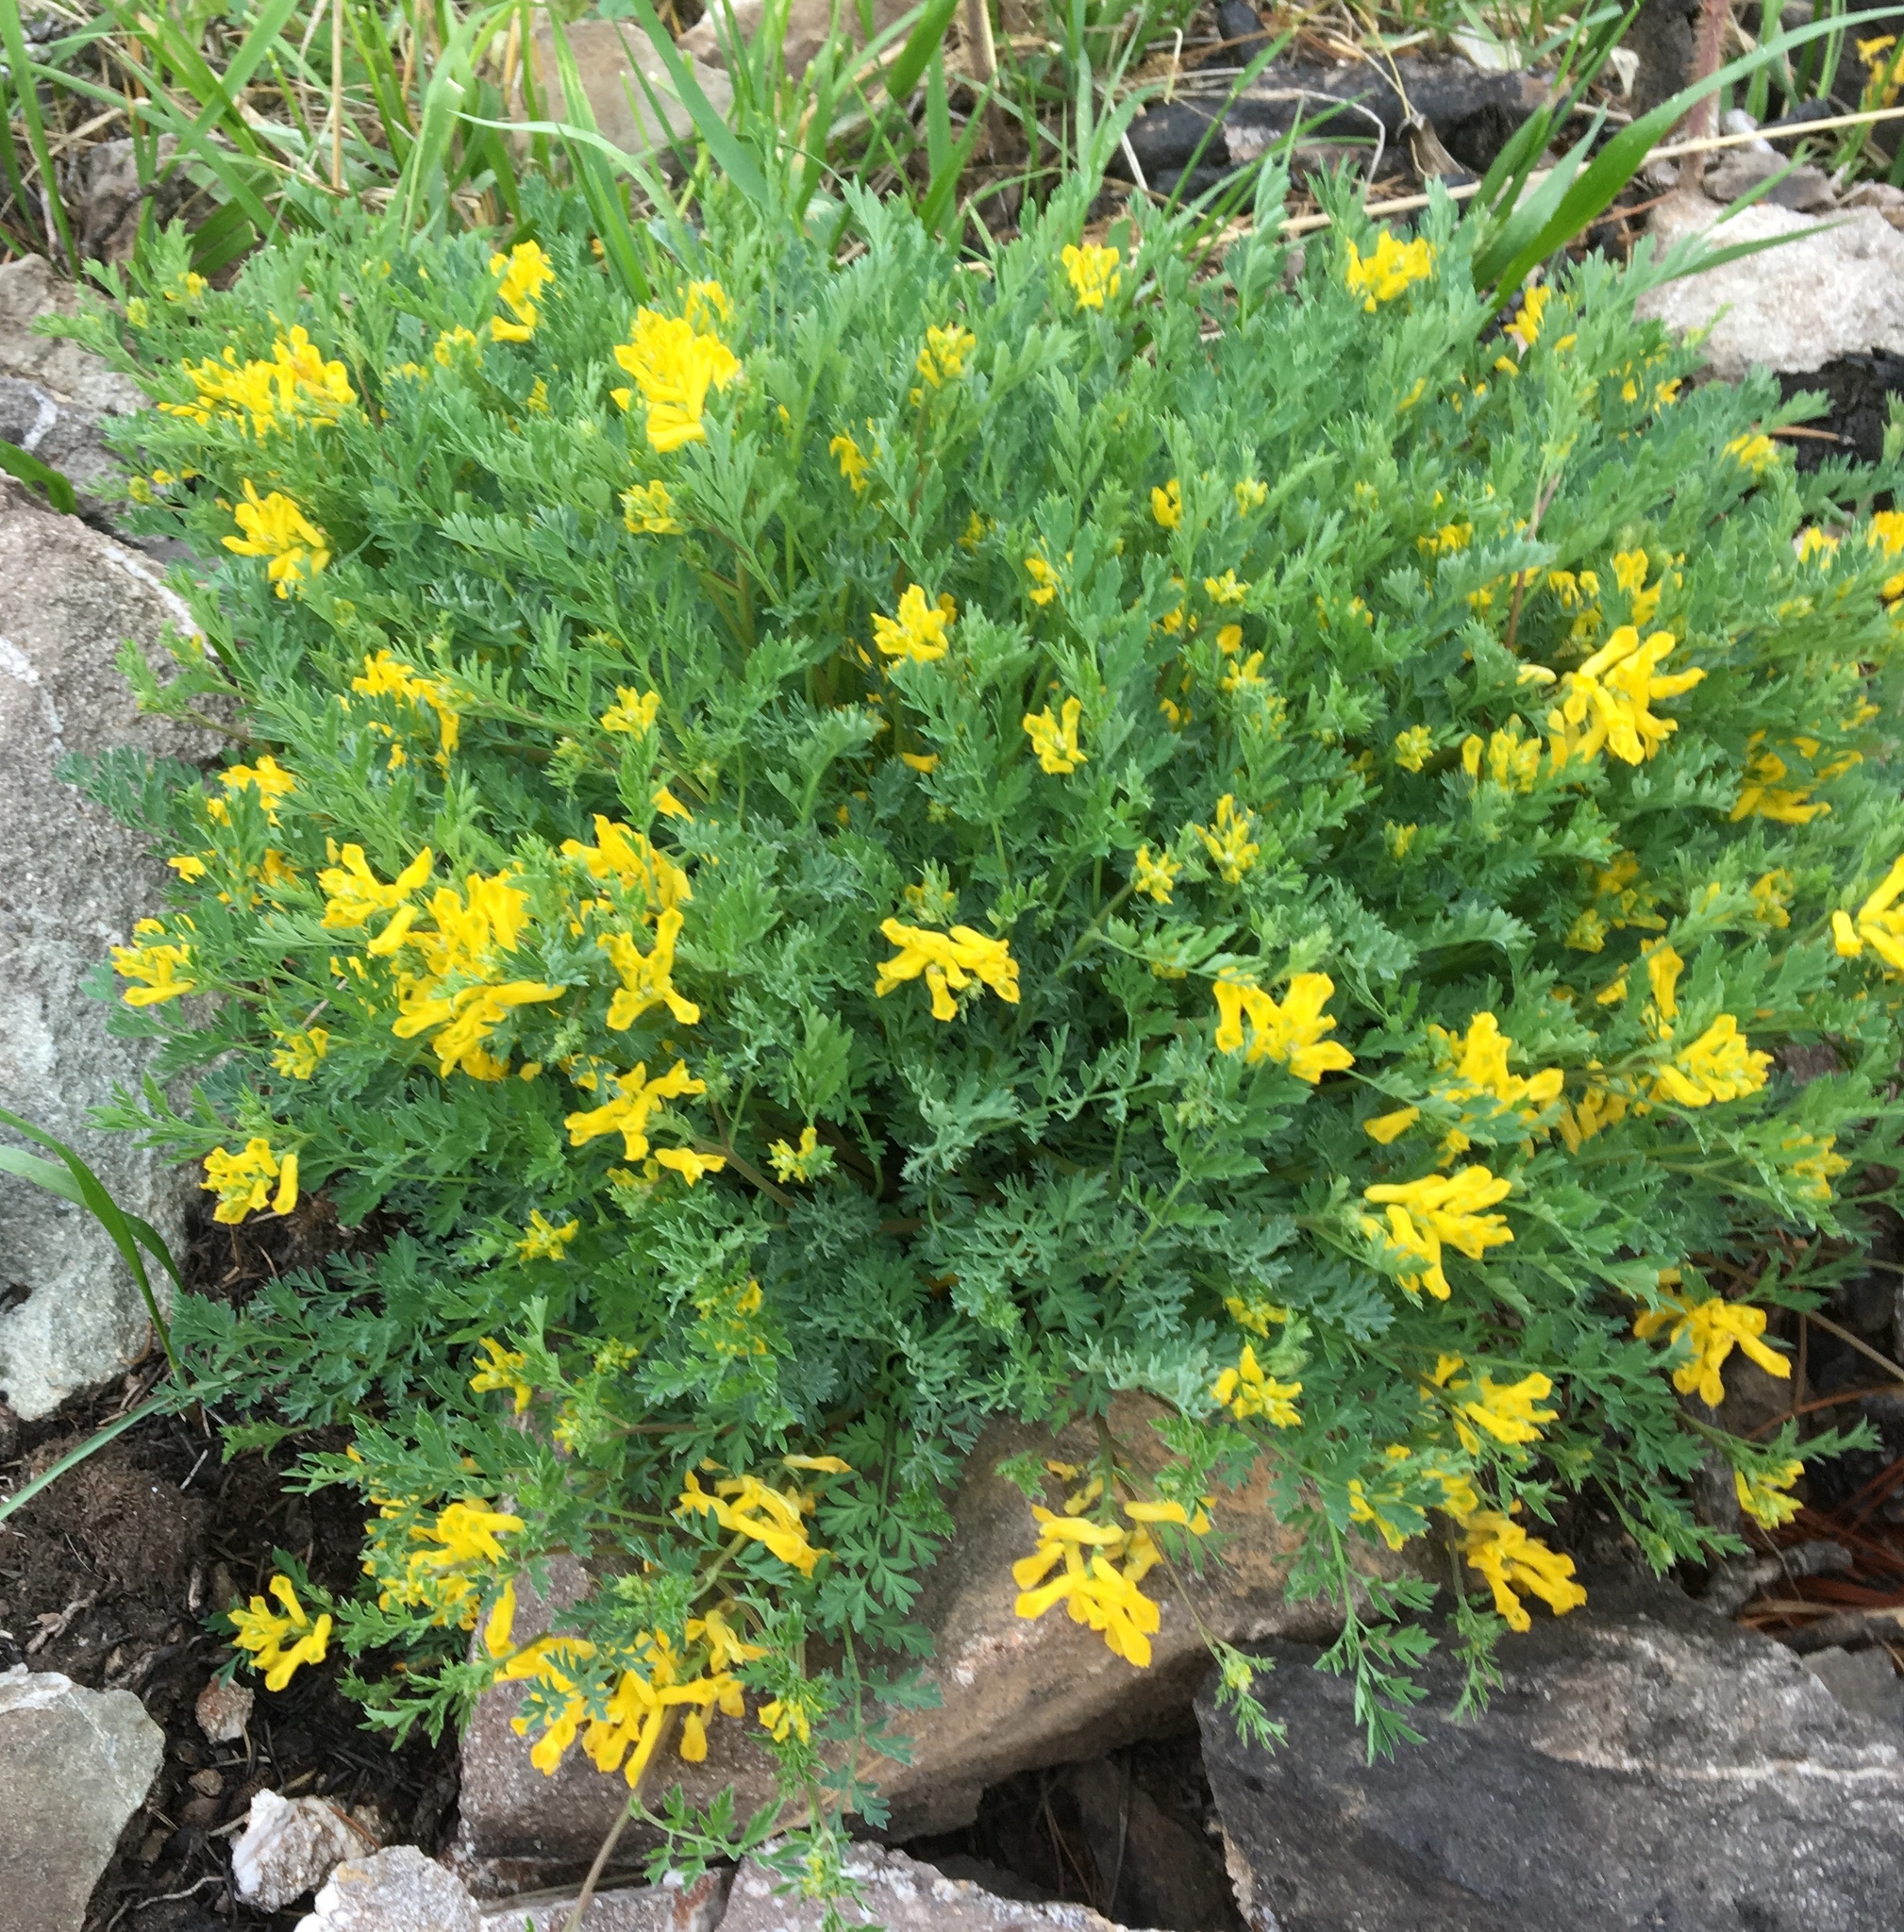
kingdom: Plantae
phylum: Tracheophyta
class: Magnoliopsida
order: Ranunculales
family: Papaveraceae
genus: Corydalis
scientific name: Corydalis aurea
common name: Golden corydalis
